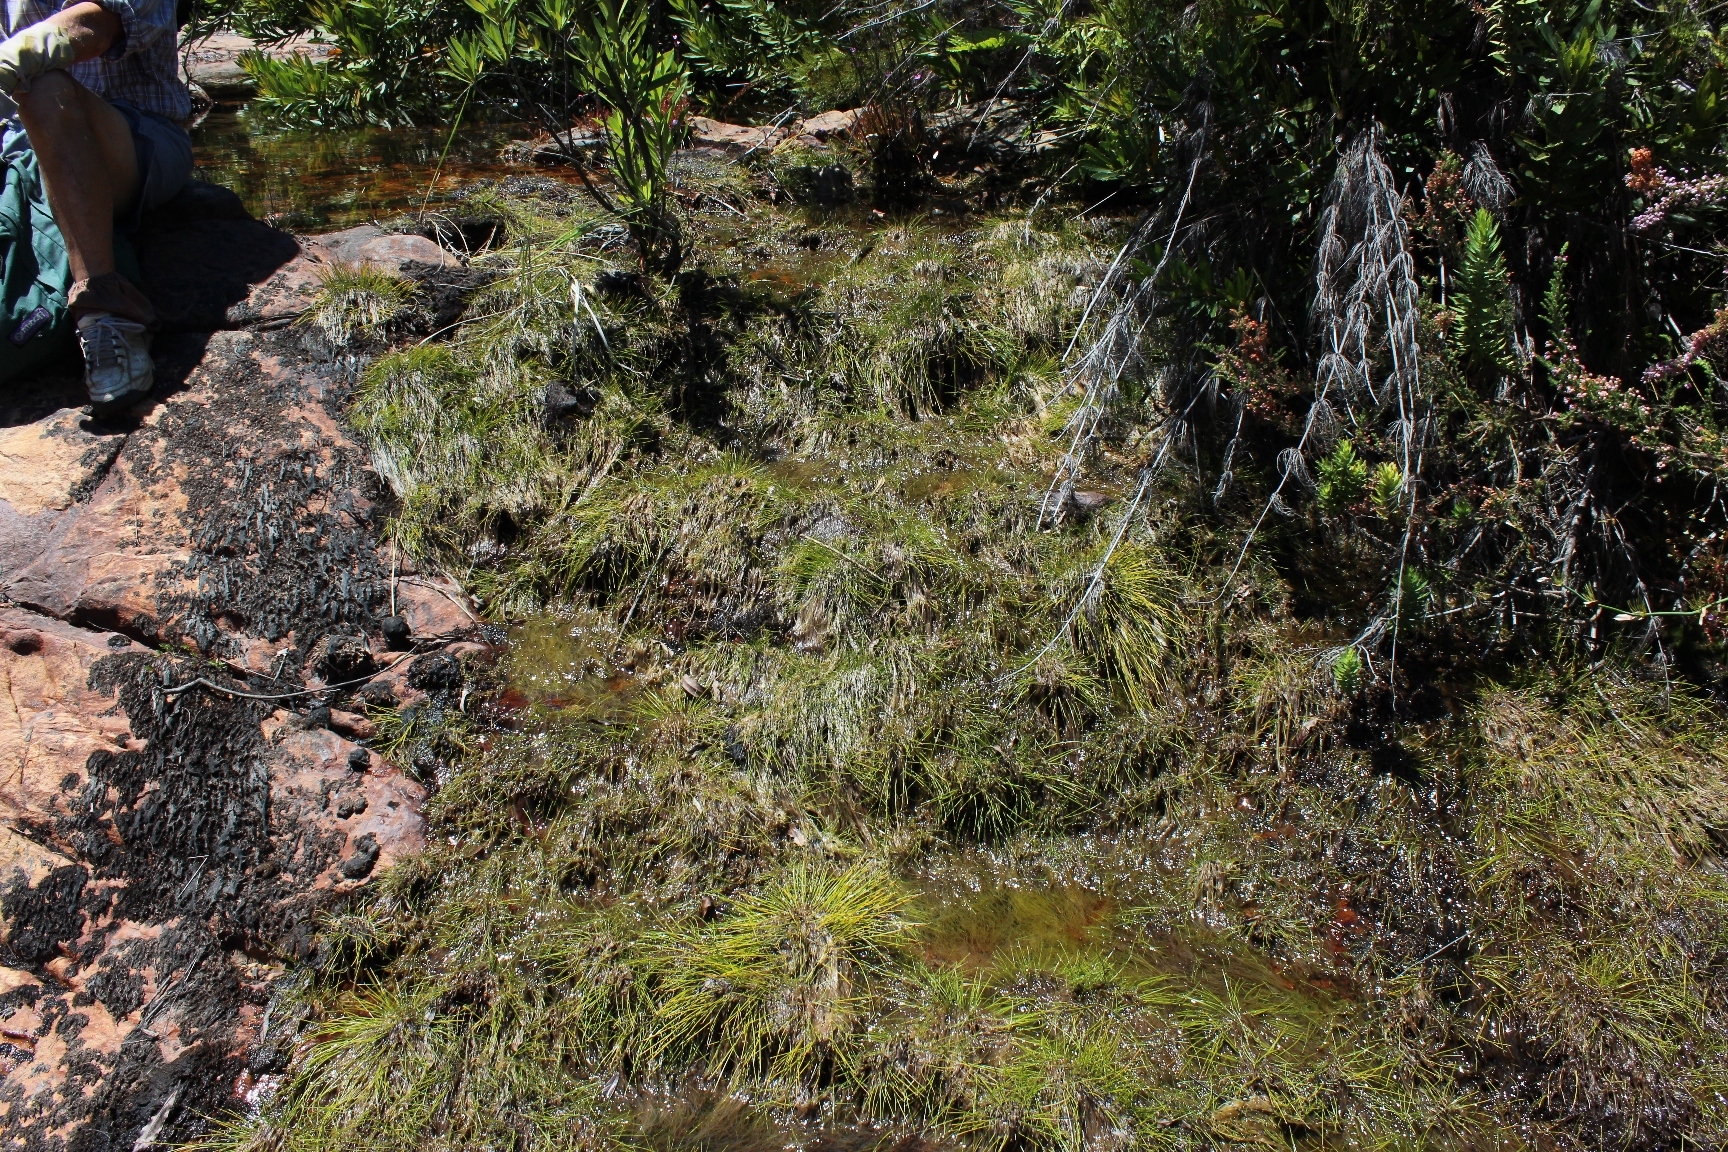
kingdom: Plantae
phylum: Tracheophyta
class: Liliopsida
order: Poales
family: Cyperaceae
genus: Isolepis
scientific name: Isolepis digitata
